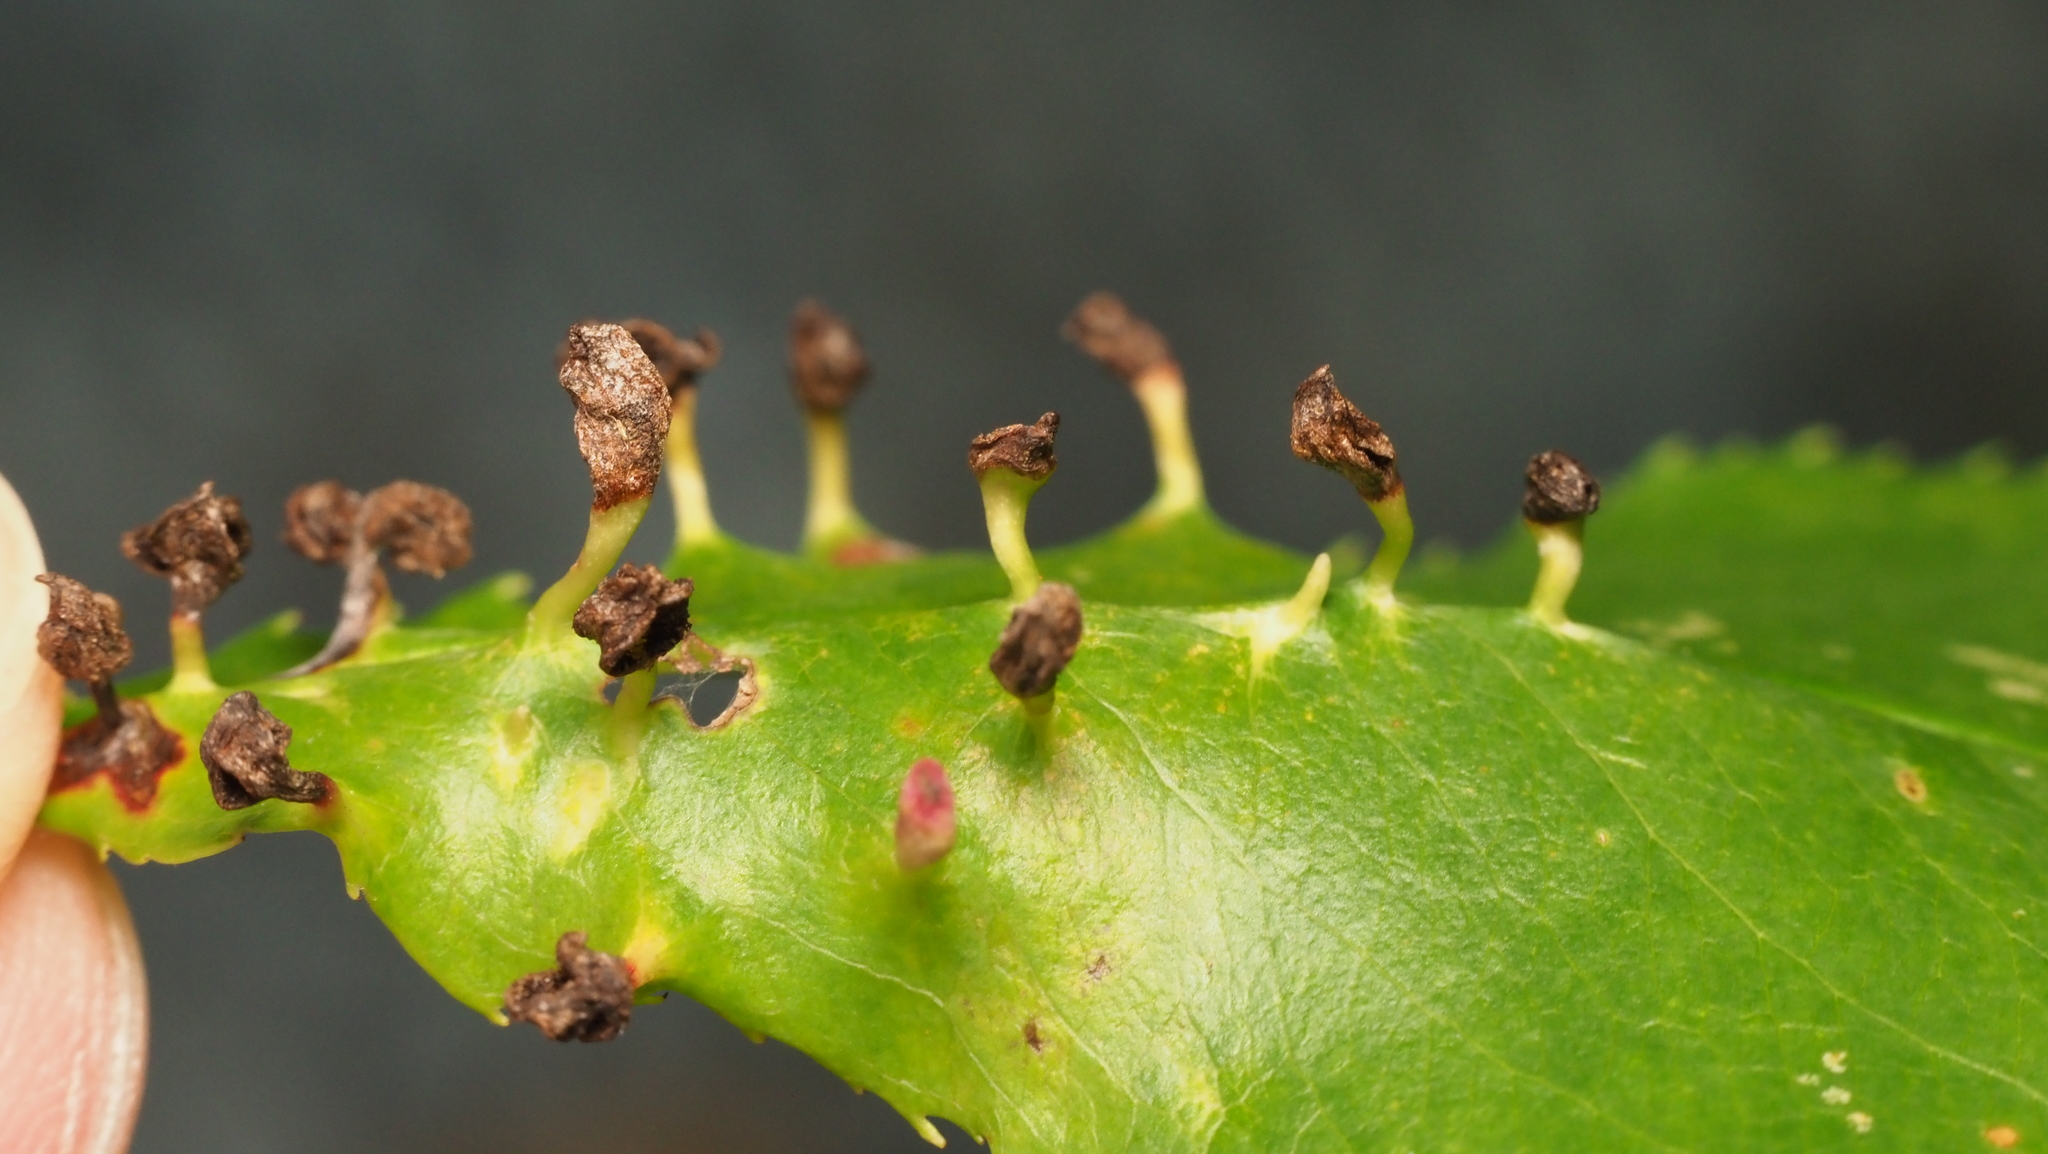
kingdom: Animalia
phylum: Arthropoda
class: Arachnida
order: Trombidiformes
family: Eriophyidae
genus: Eriophyes
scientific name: Eriophyes
